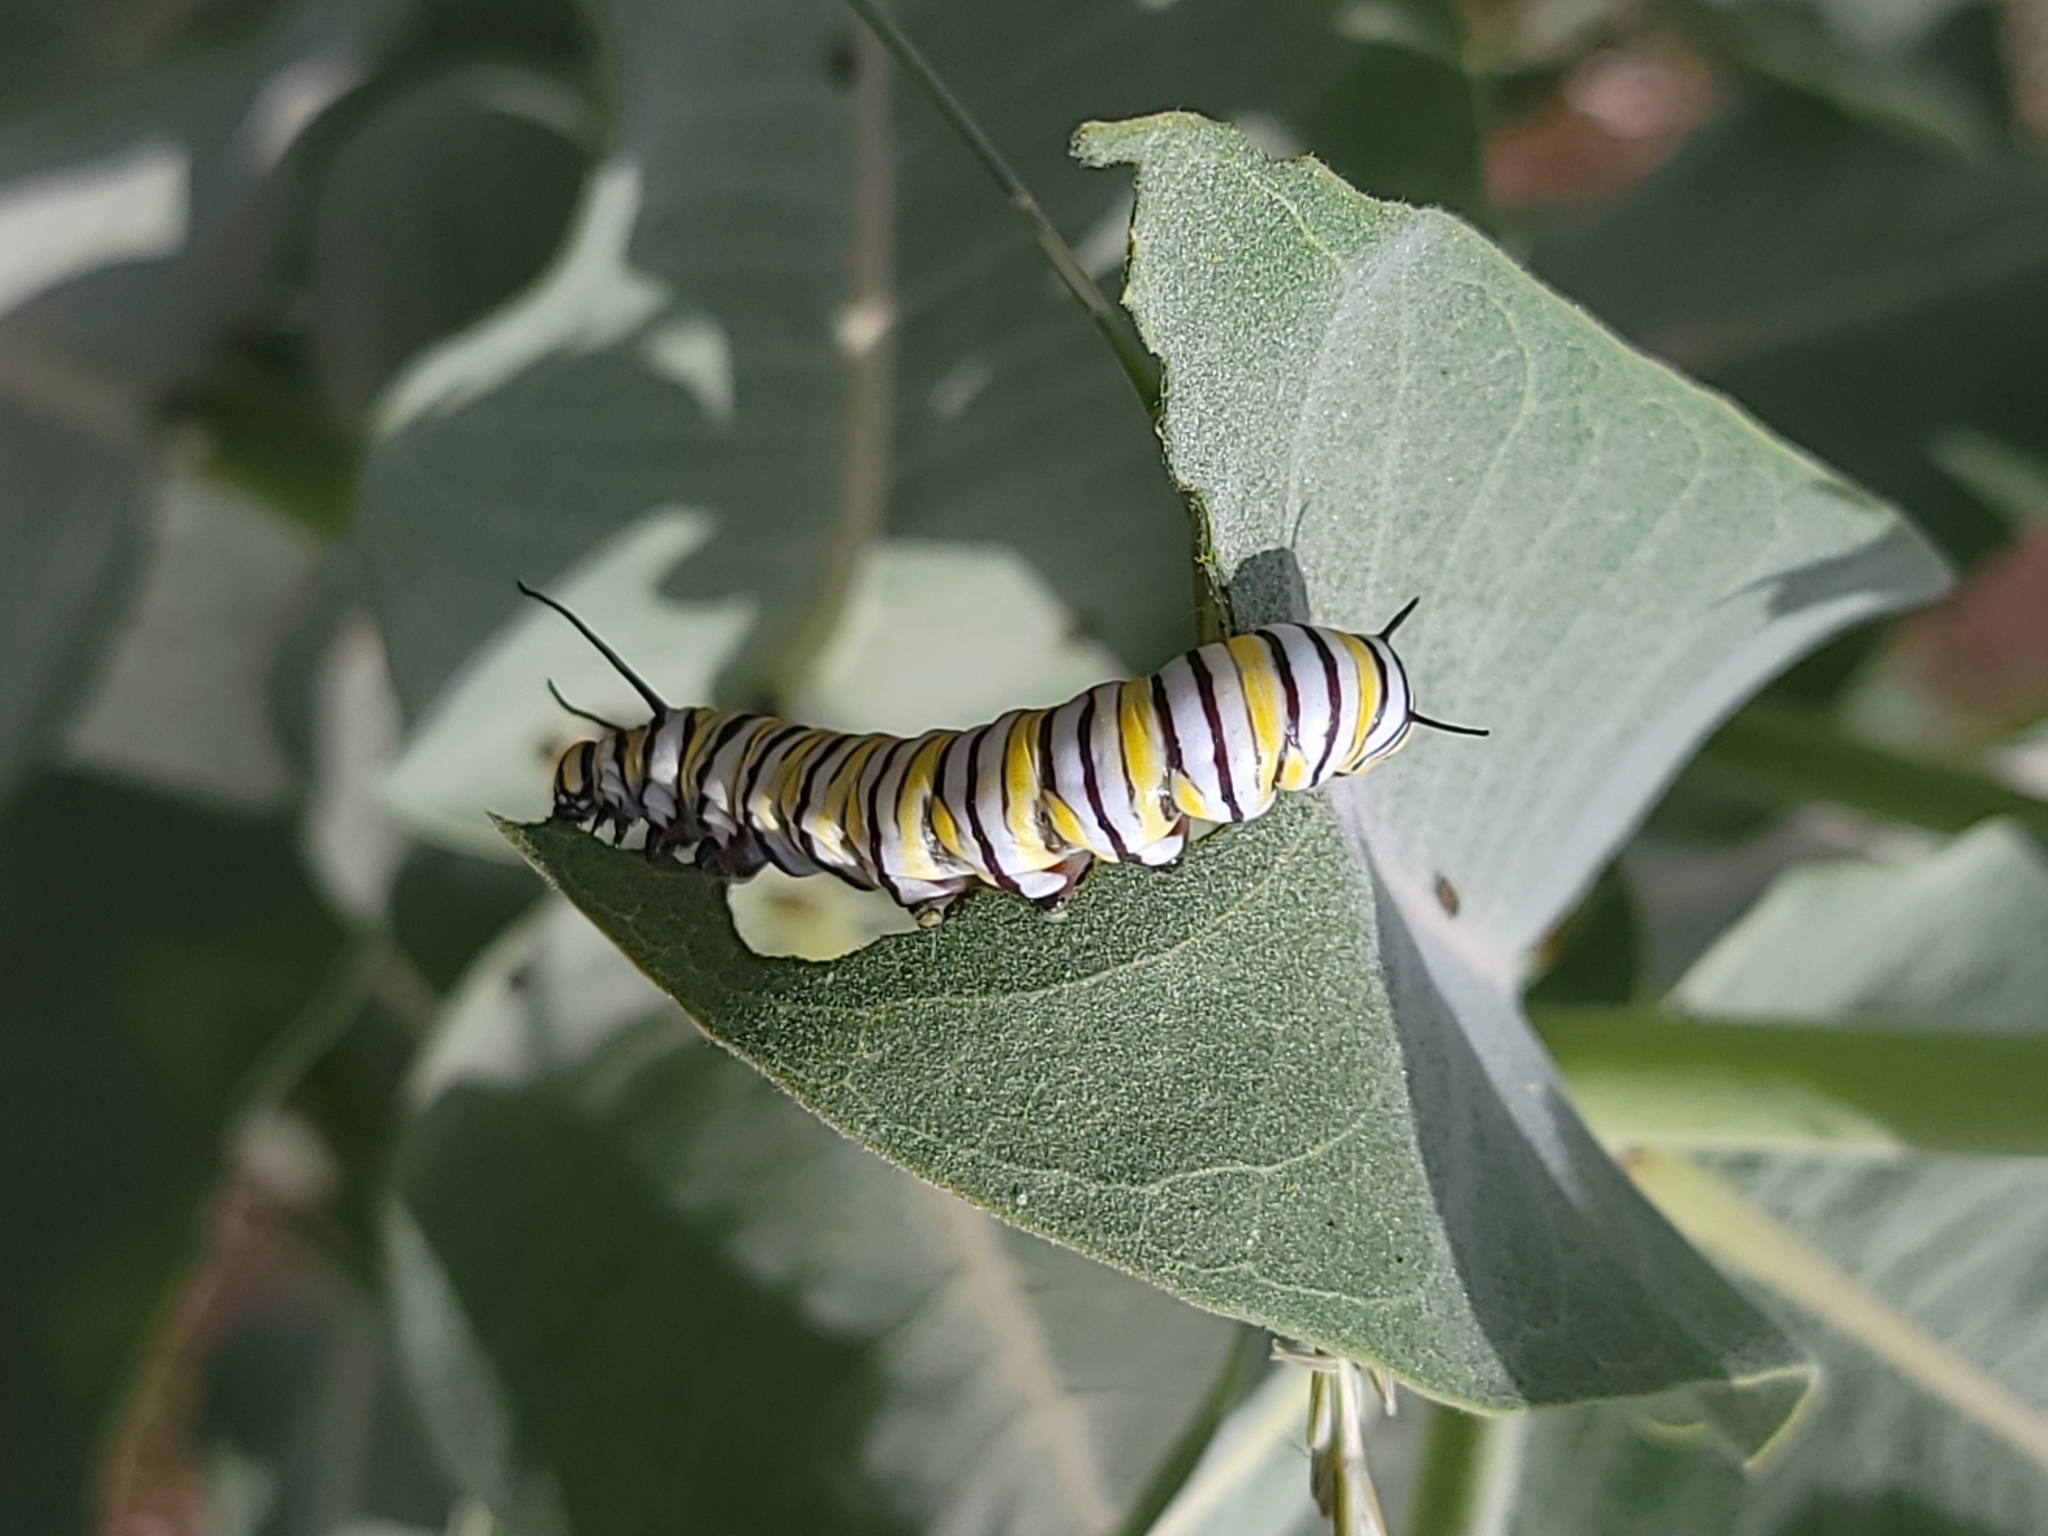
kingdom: Animalia
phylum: Arthropoda
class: Insecta
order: Lepidoptera
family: Nymphalidae
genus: Danaus
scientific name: Danaus plexippus
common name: Monarch
